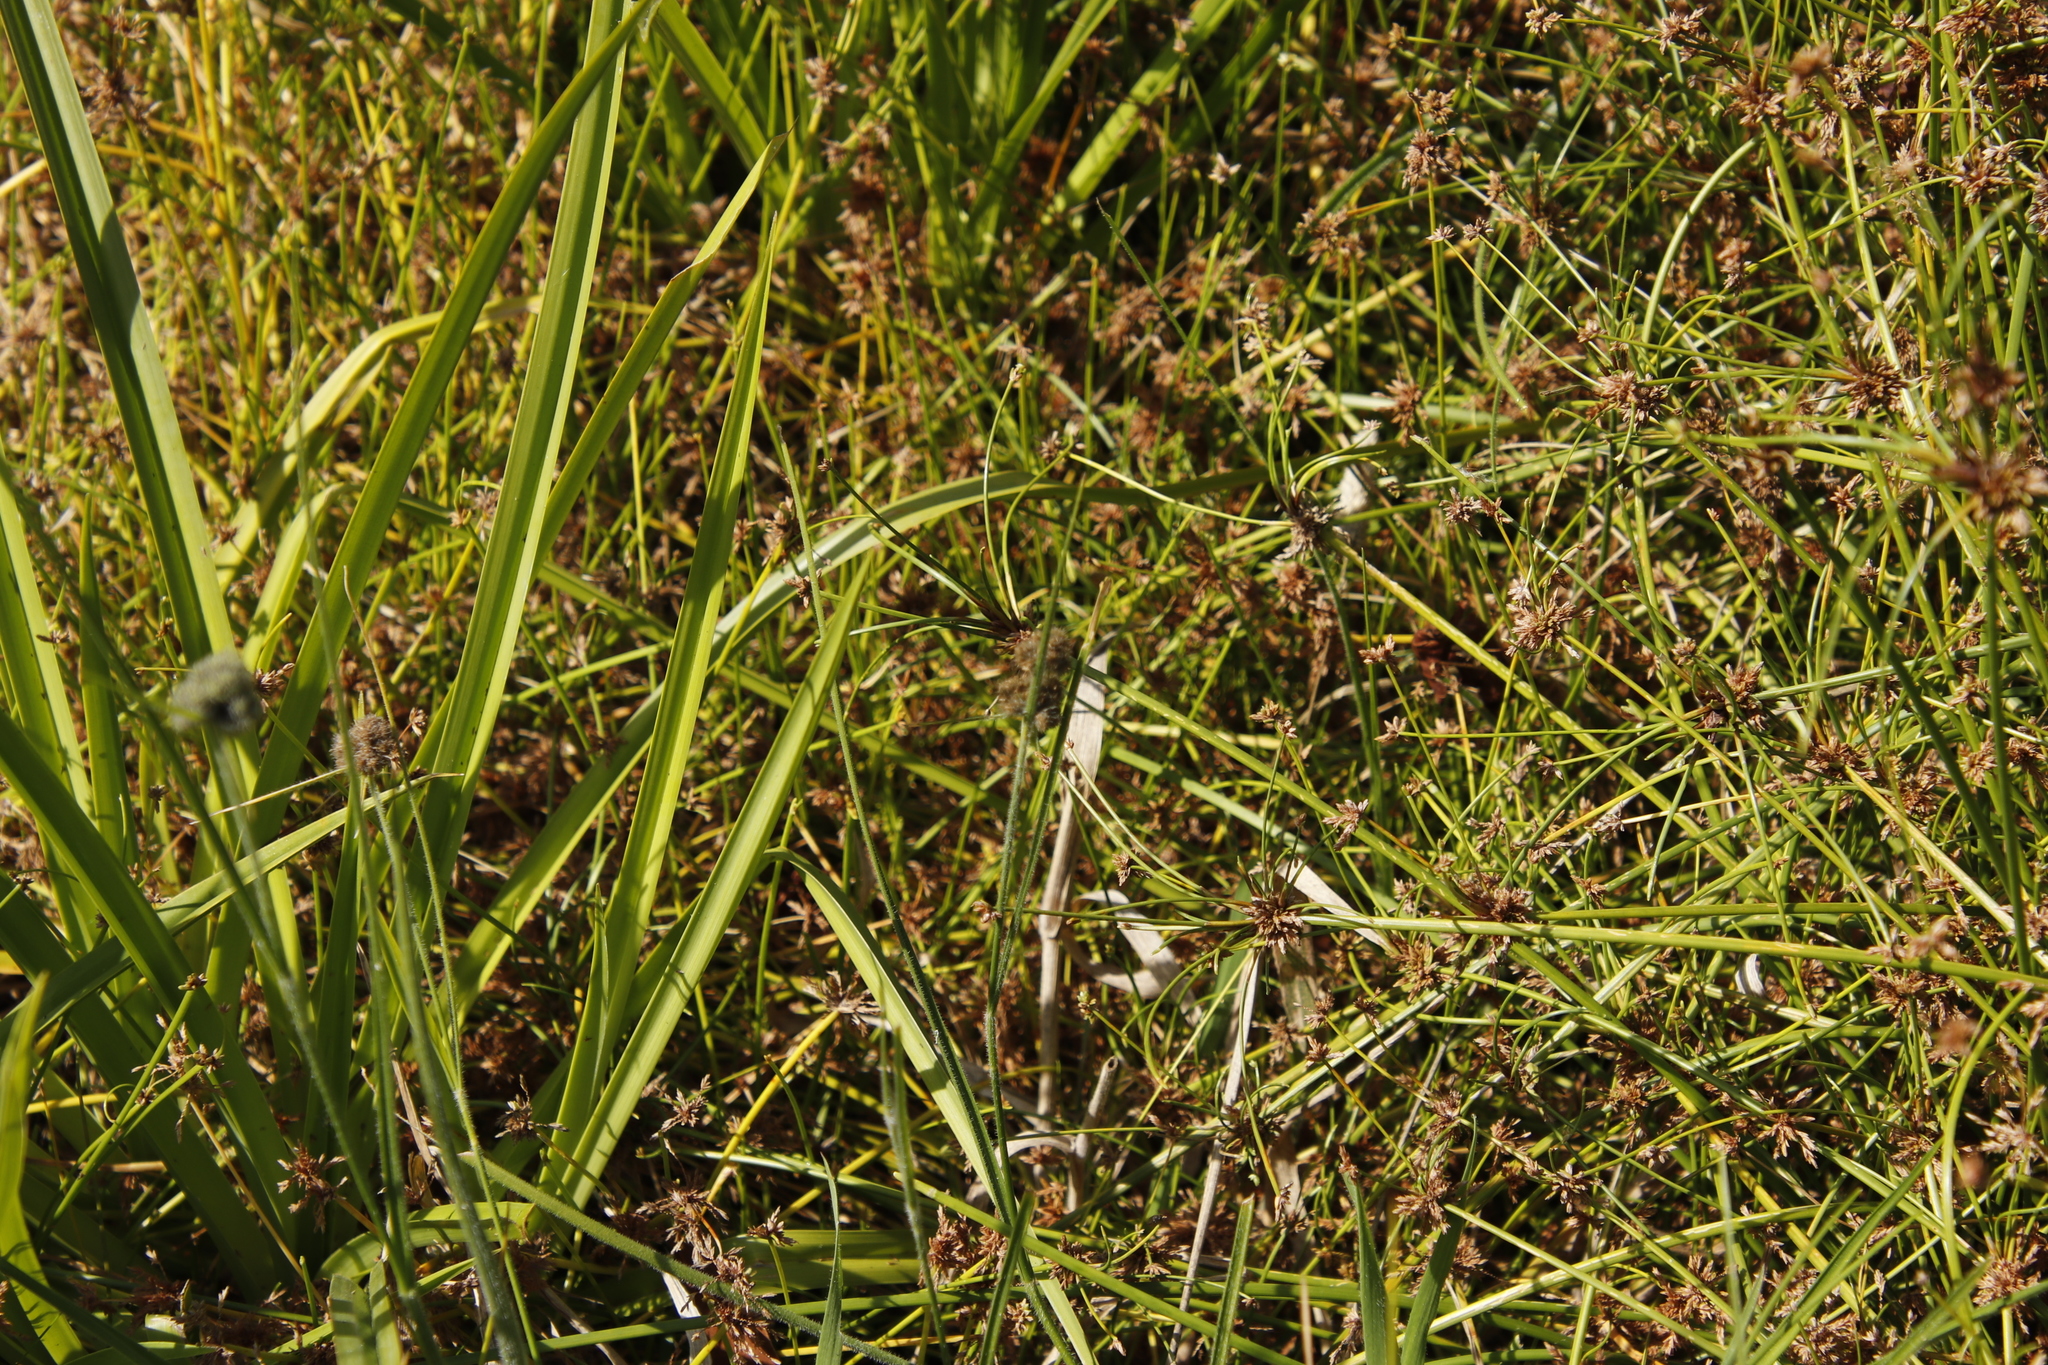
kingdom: Plantae
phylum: Tracheophyta
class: Liliopsida
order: Poales
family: Cyperaceae
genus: Fuirena
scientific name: Fuirena hirsuta
